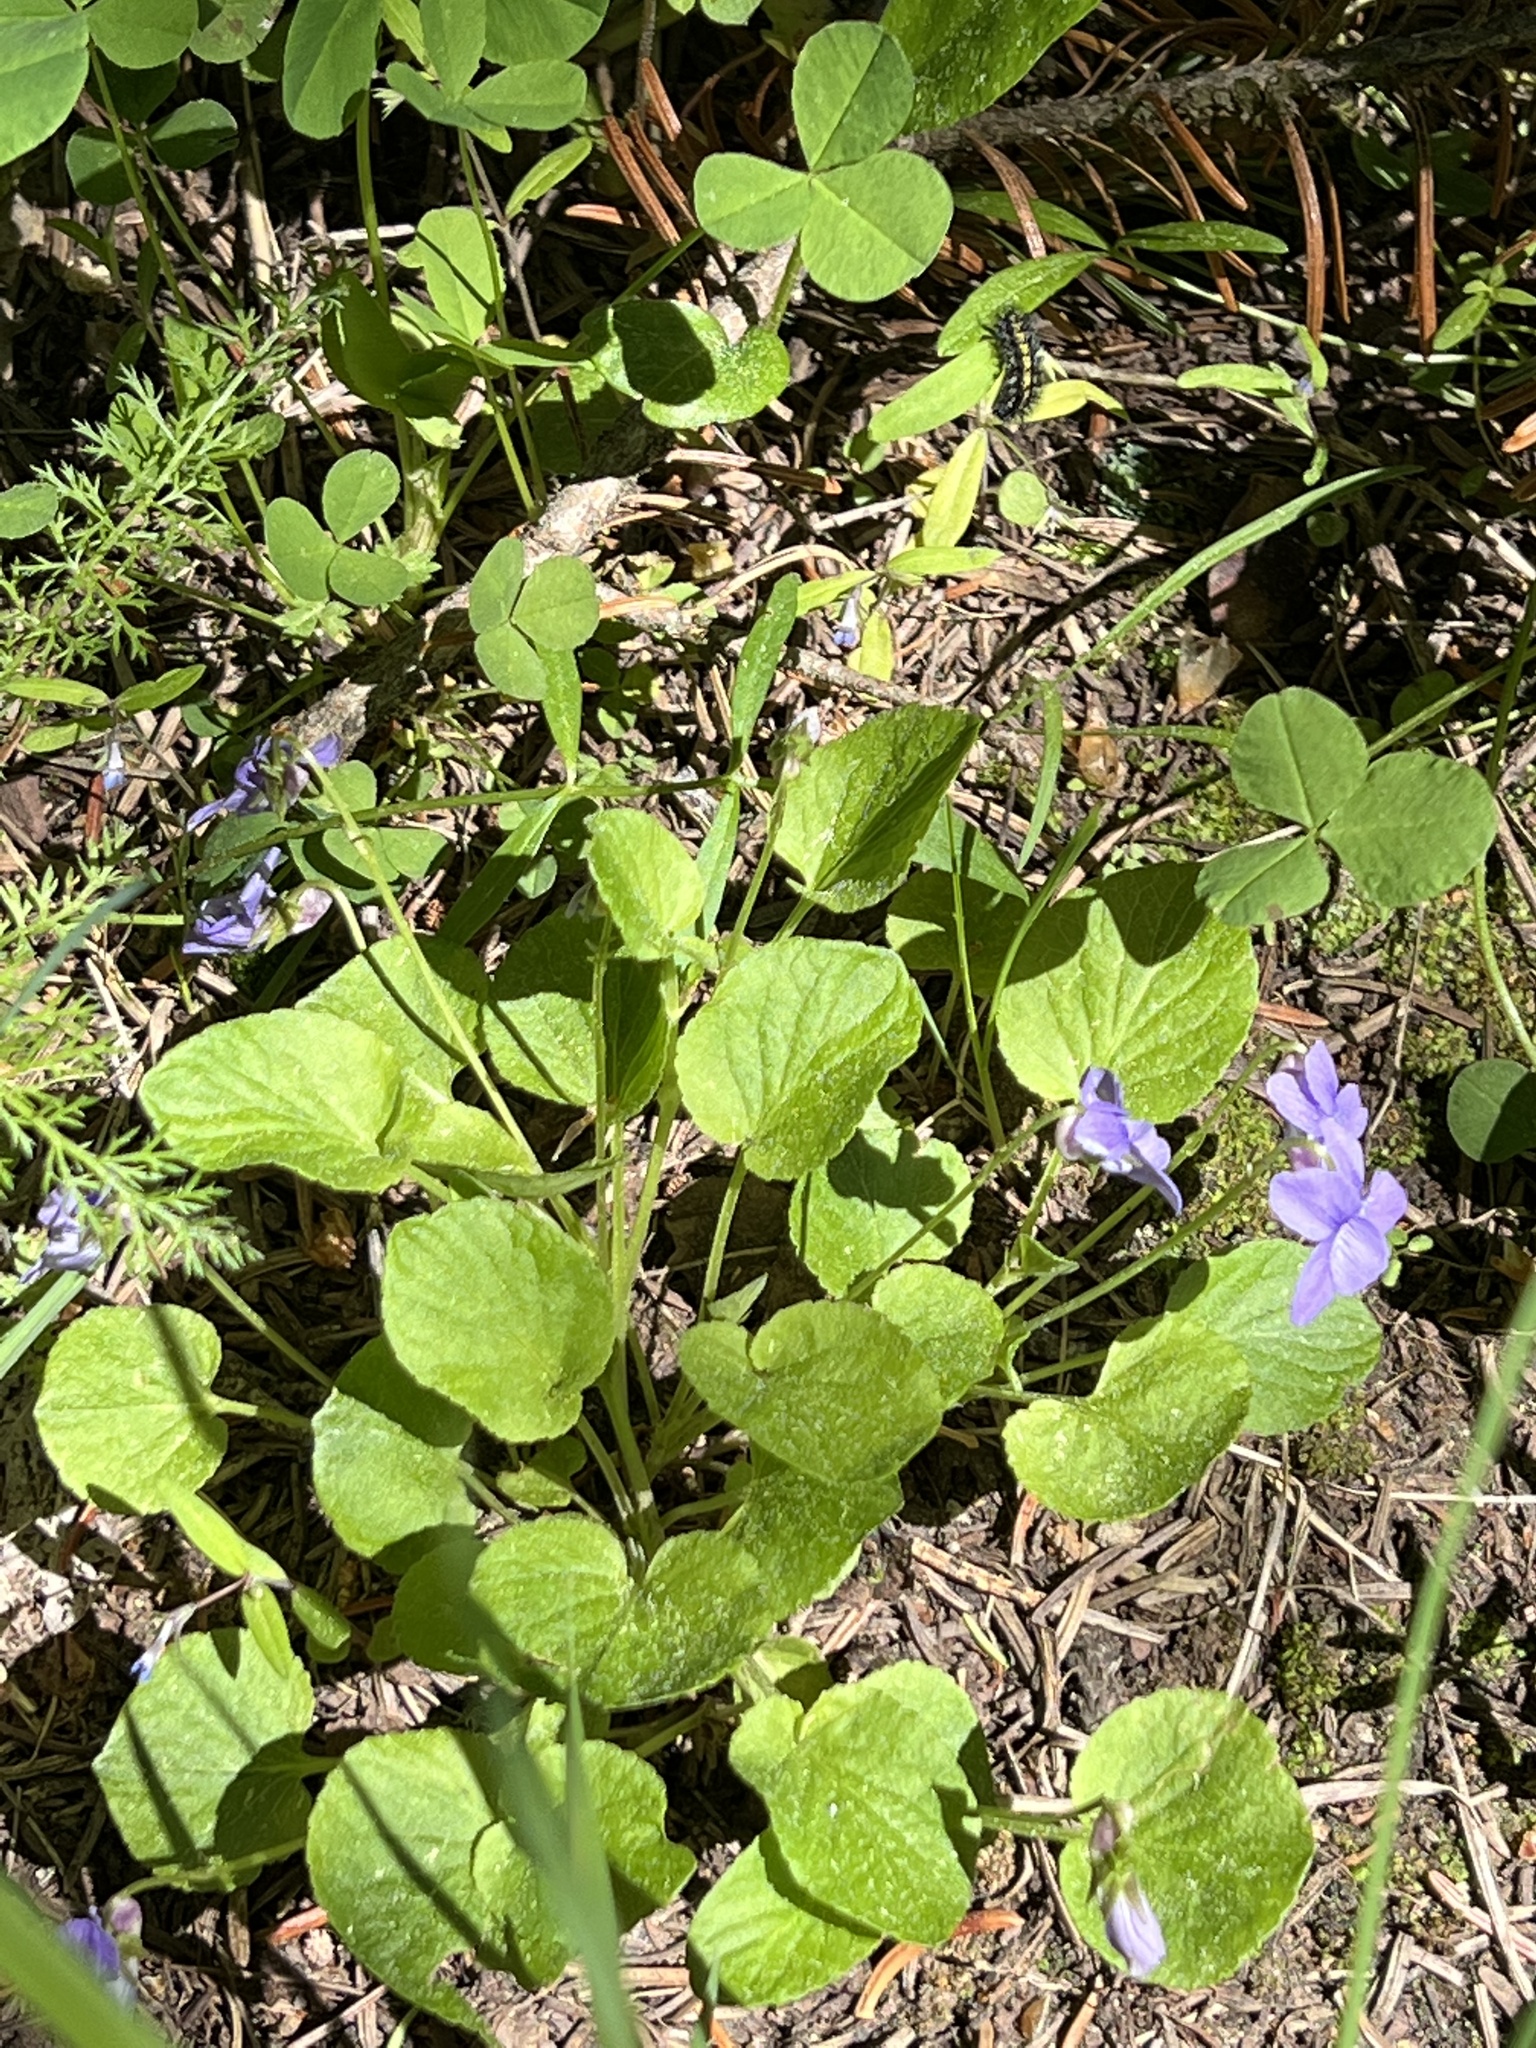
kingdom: Plantae
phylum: Tracheophyta
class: Magnoliopsida
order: Malpighiales
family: Violaceae
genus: Viola
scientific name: Viola adunca
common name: Sand violet
